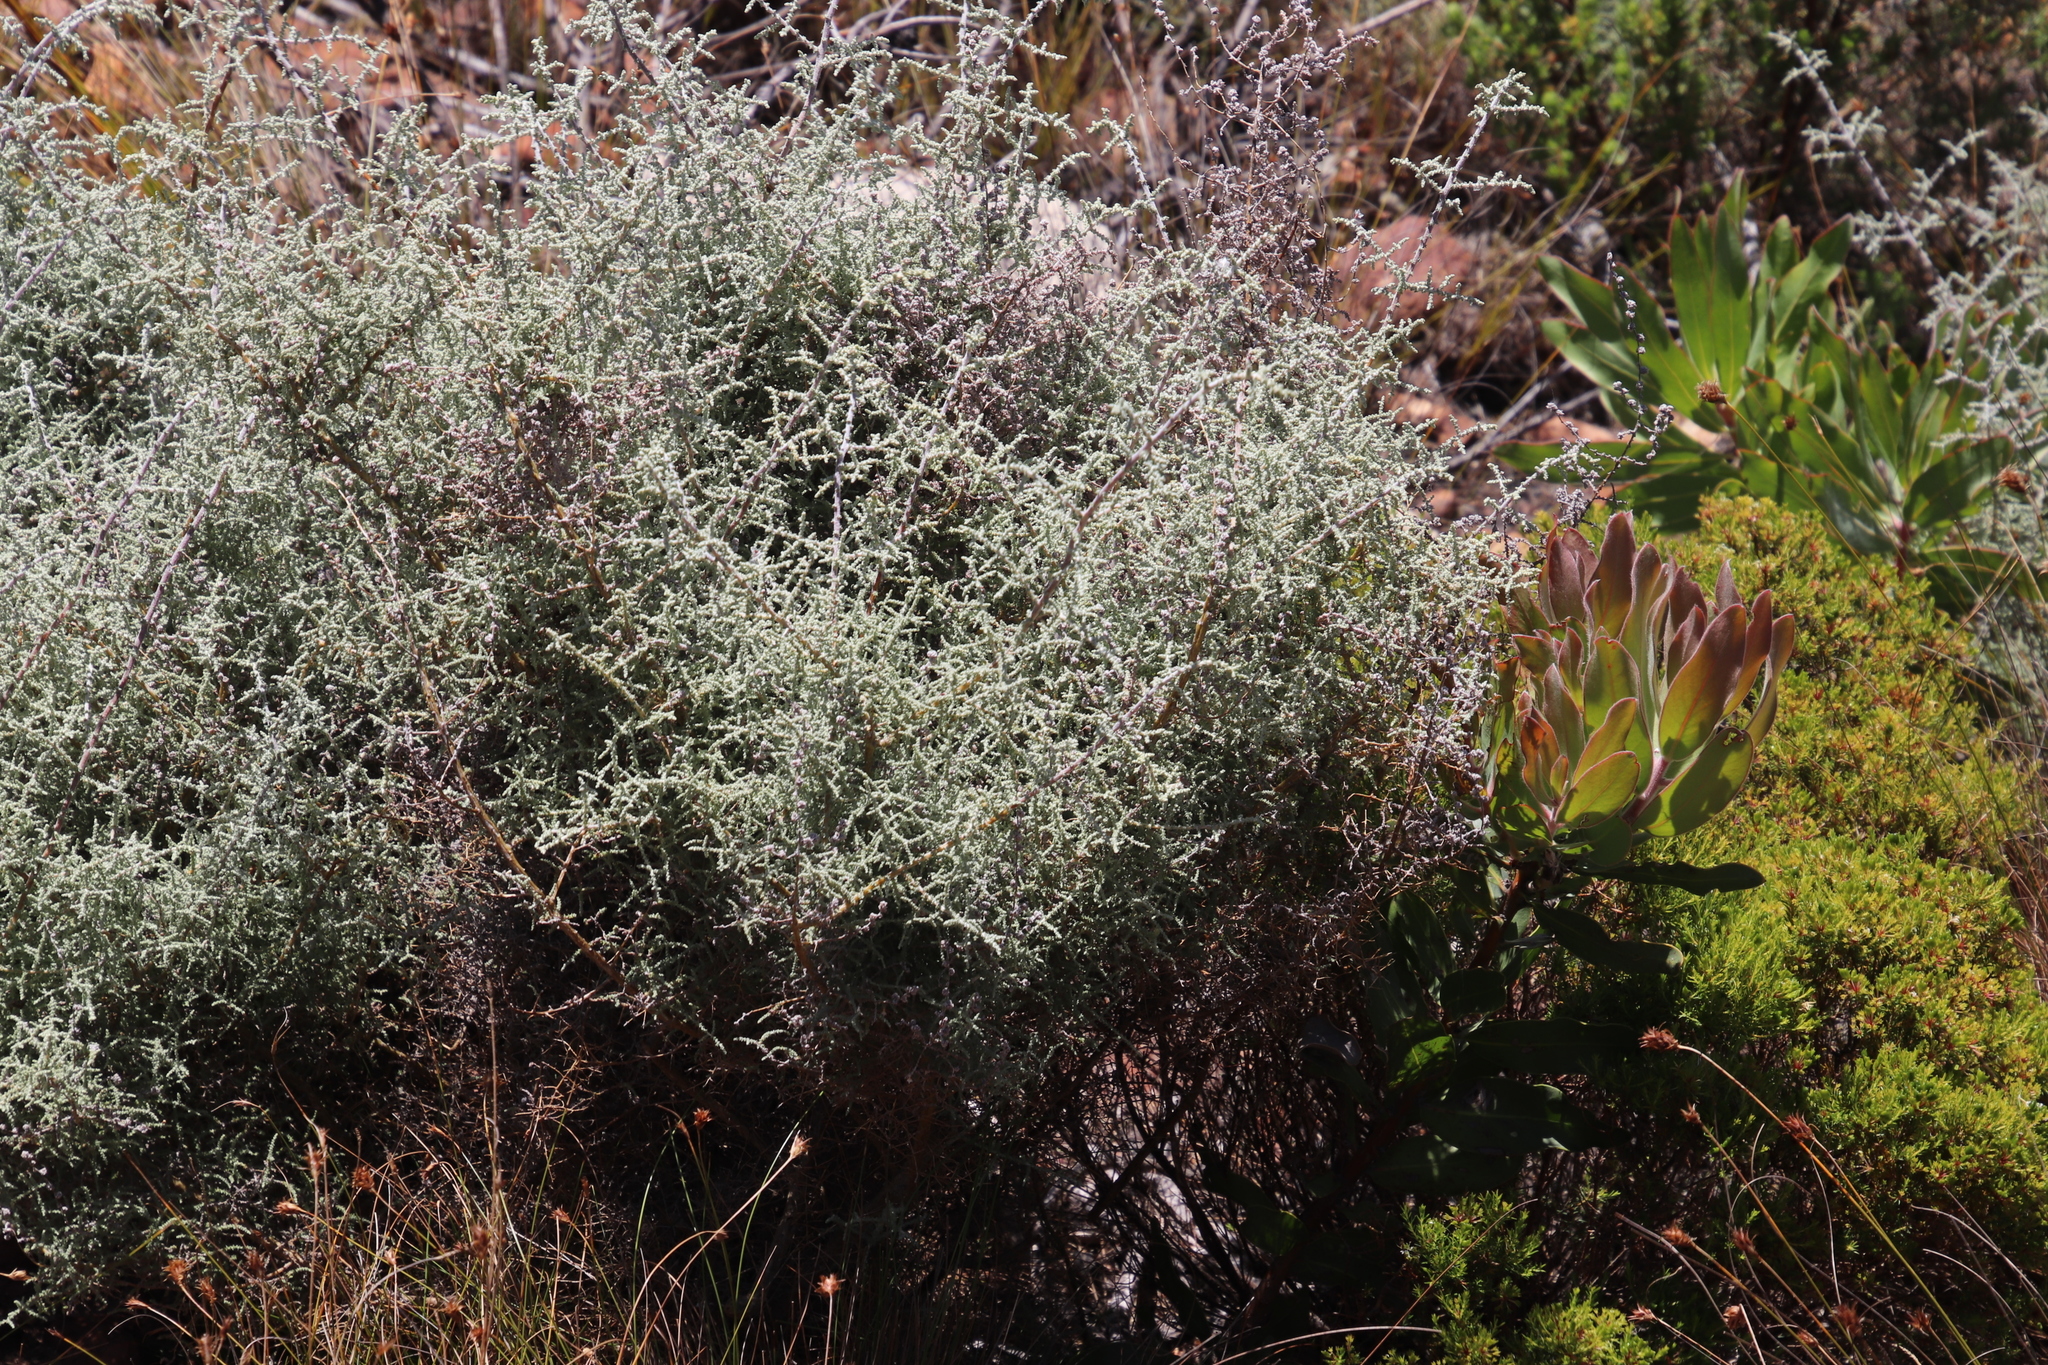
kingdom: Plantae
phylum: Tracheophyta
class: Magnoliopsida
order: Asterales
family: Asteraceae
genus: Seriphium
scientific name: Seriphium plumosum
